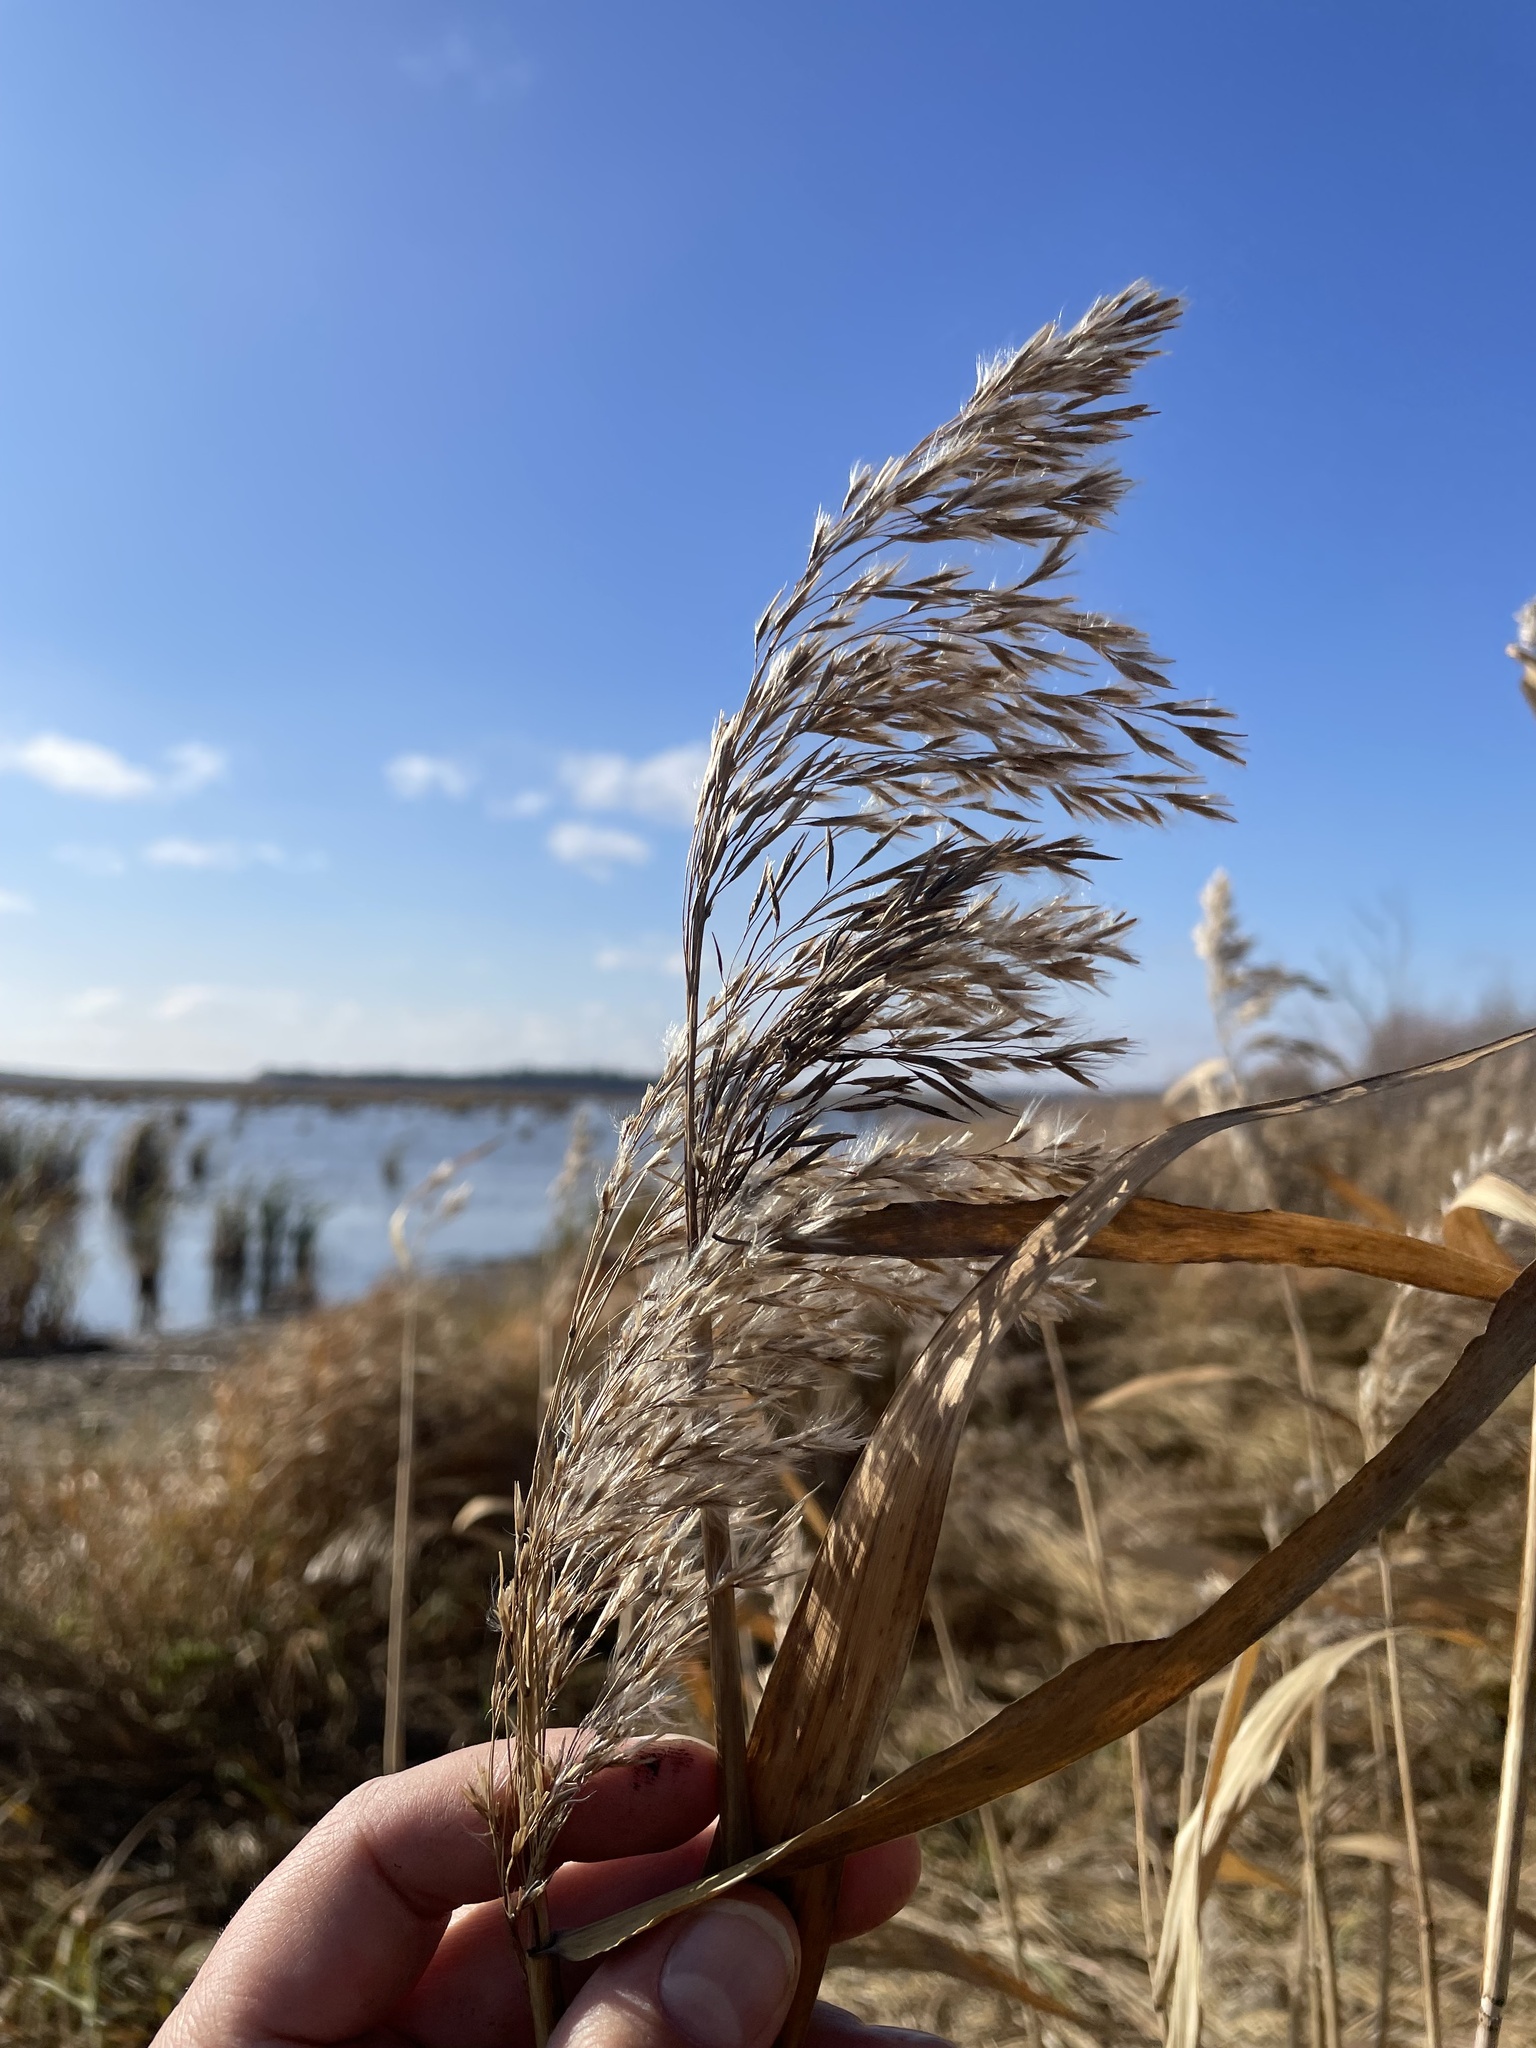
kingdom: Plantae
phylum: Tracheophyta
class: Liliopsida
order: Poales
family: Poaceae
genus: Phragmites
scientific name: Phragmites australis
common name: Common reed
